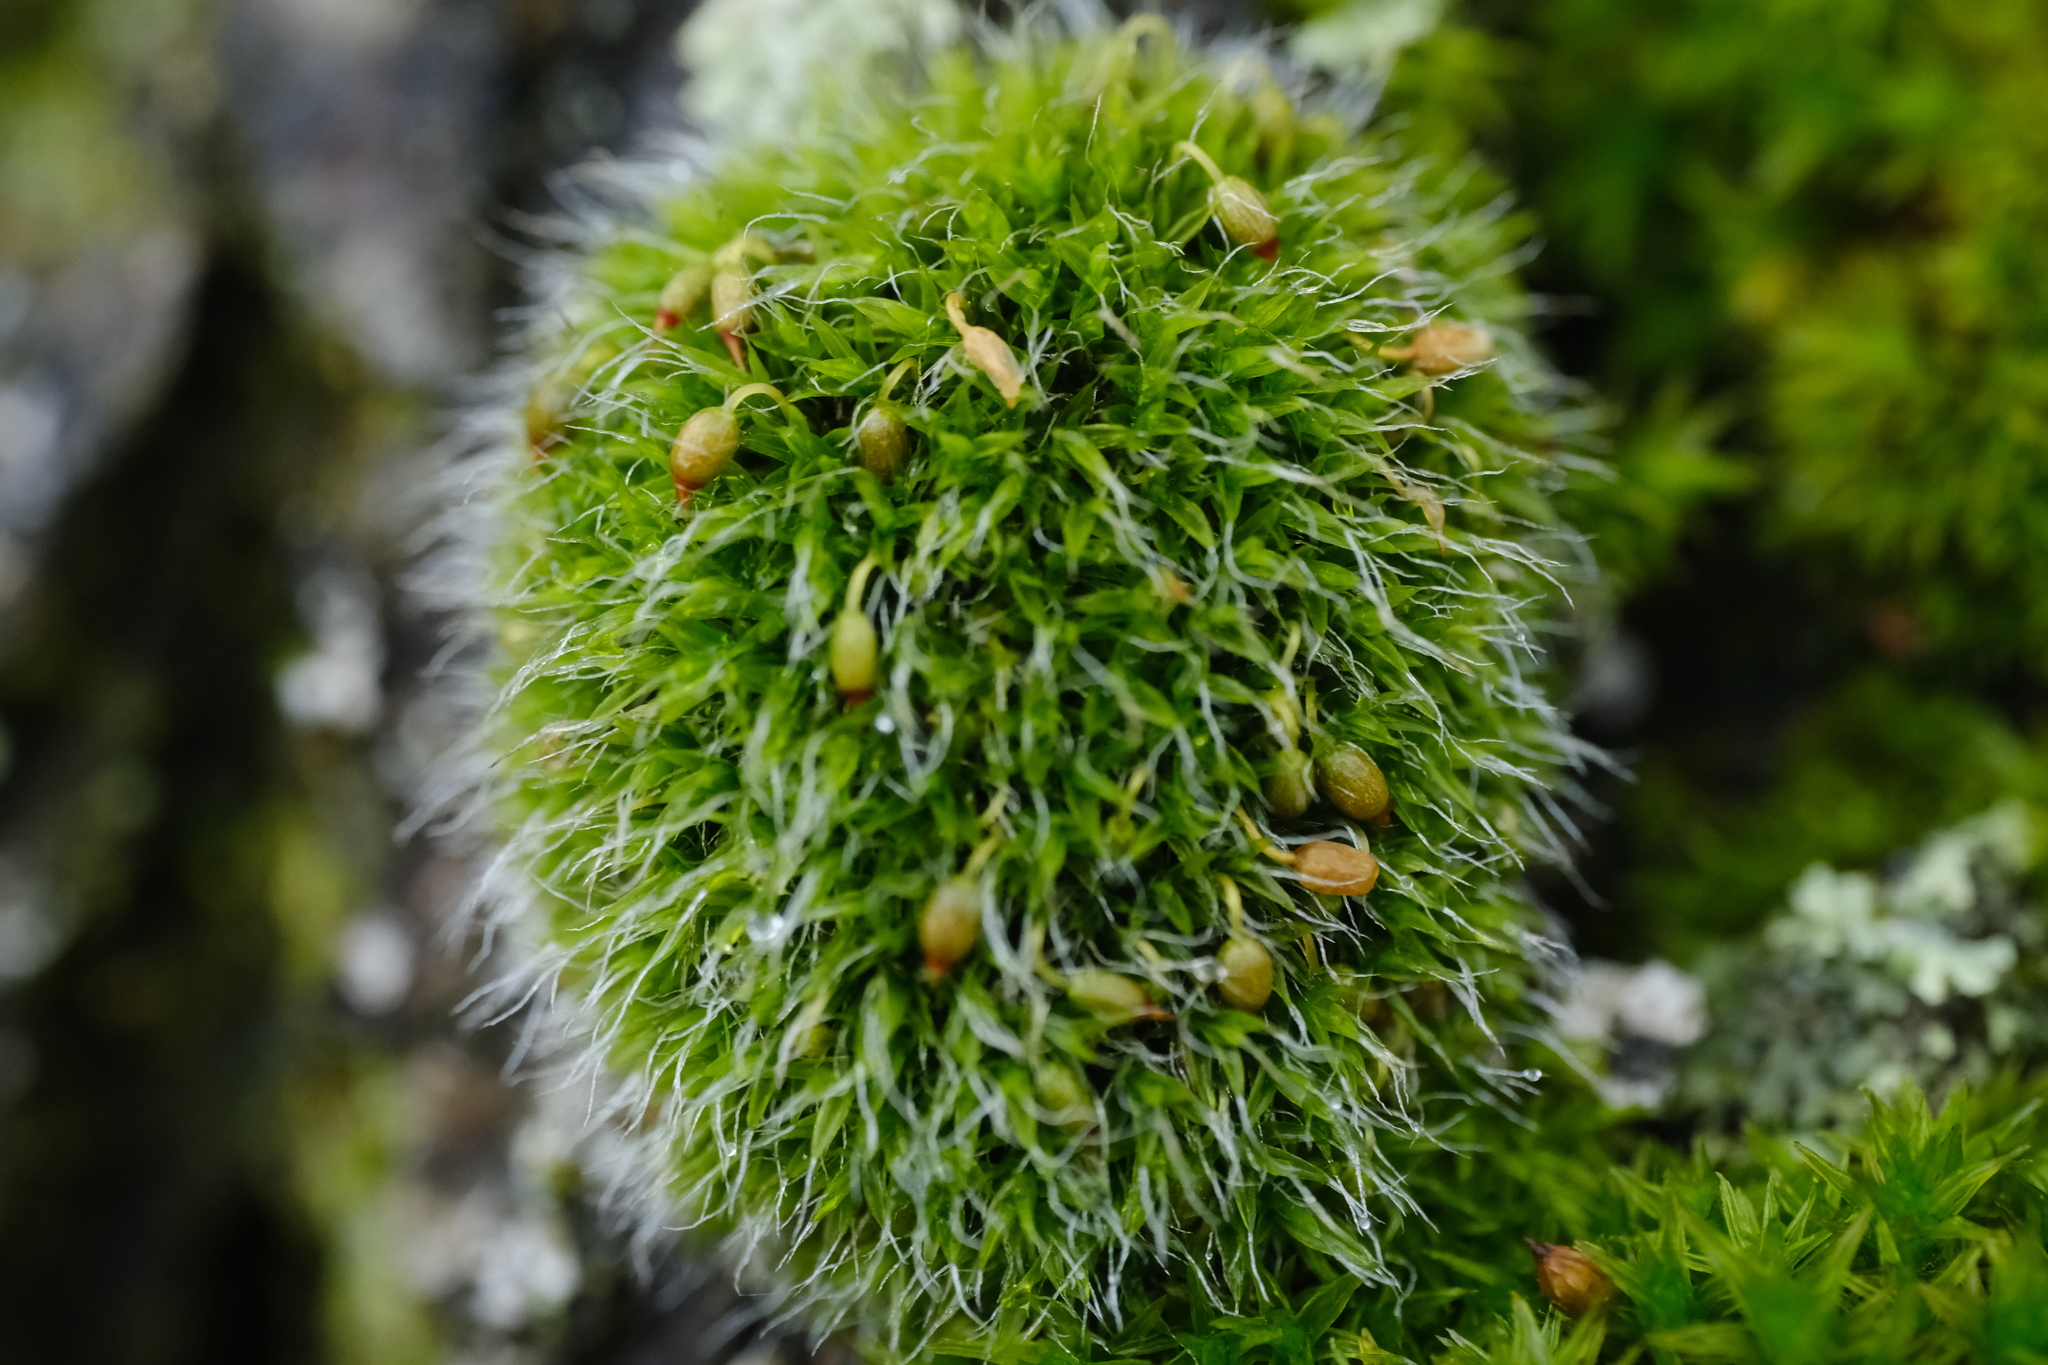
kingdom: Plantae
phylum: Bryophyta
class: Bryopsida
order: Grimmiales
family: Grimmiaceae
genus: Grimmia
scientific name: Grimmia pulvinata
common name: Grey-cushioned grimmia
